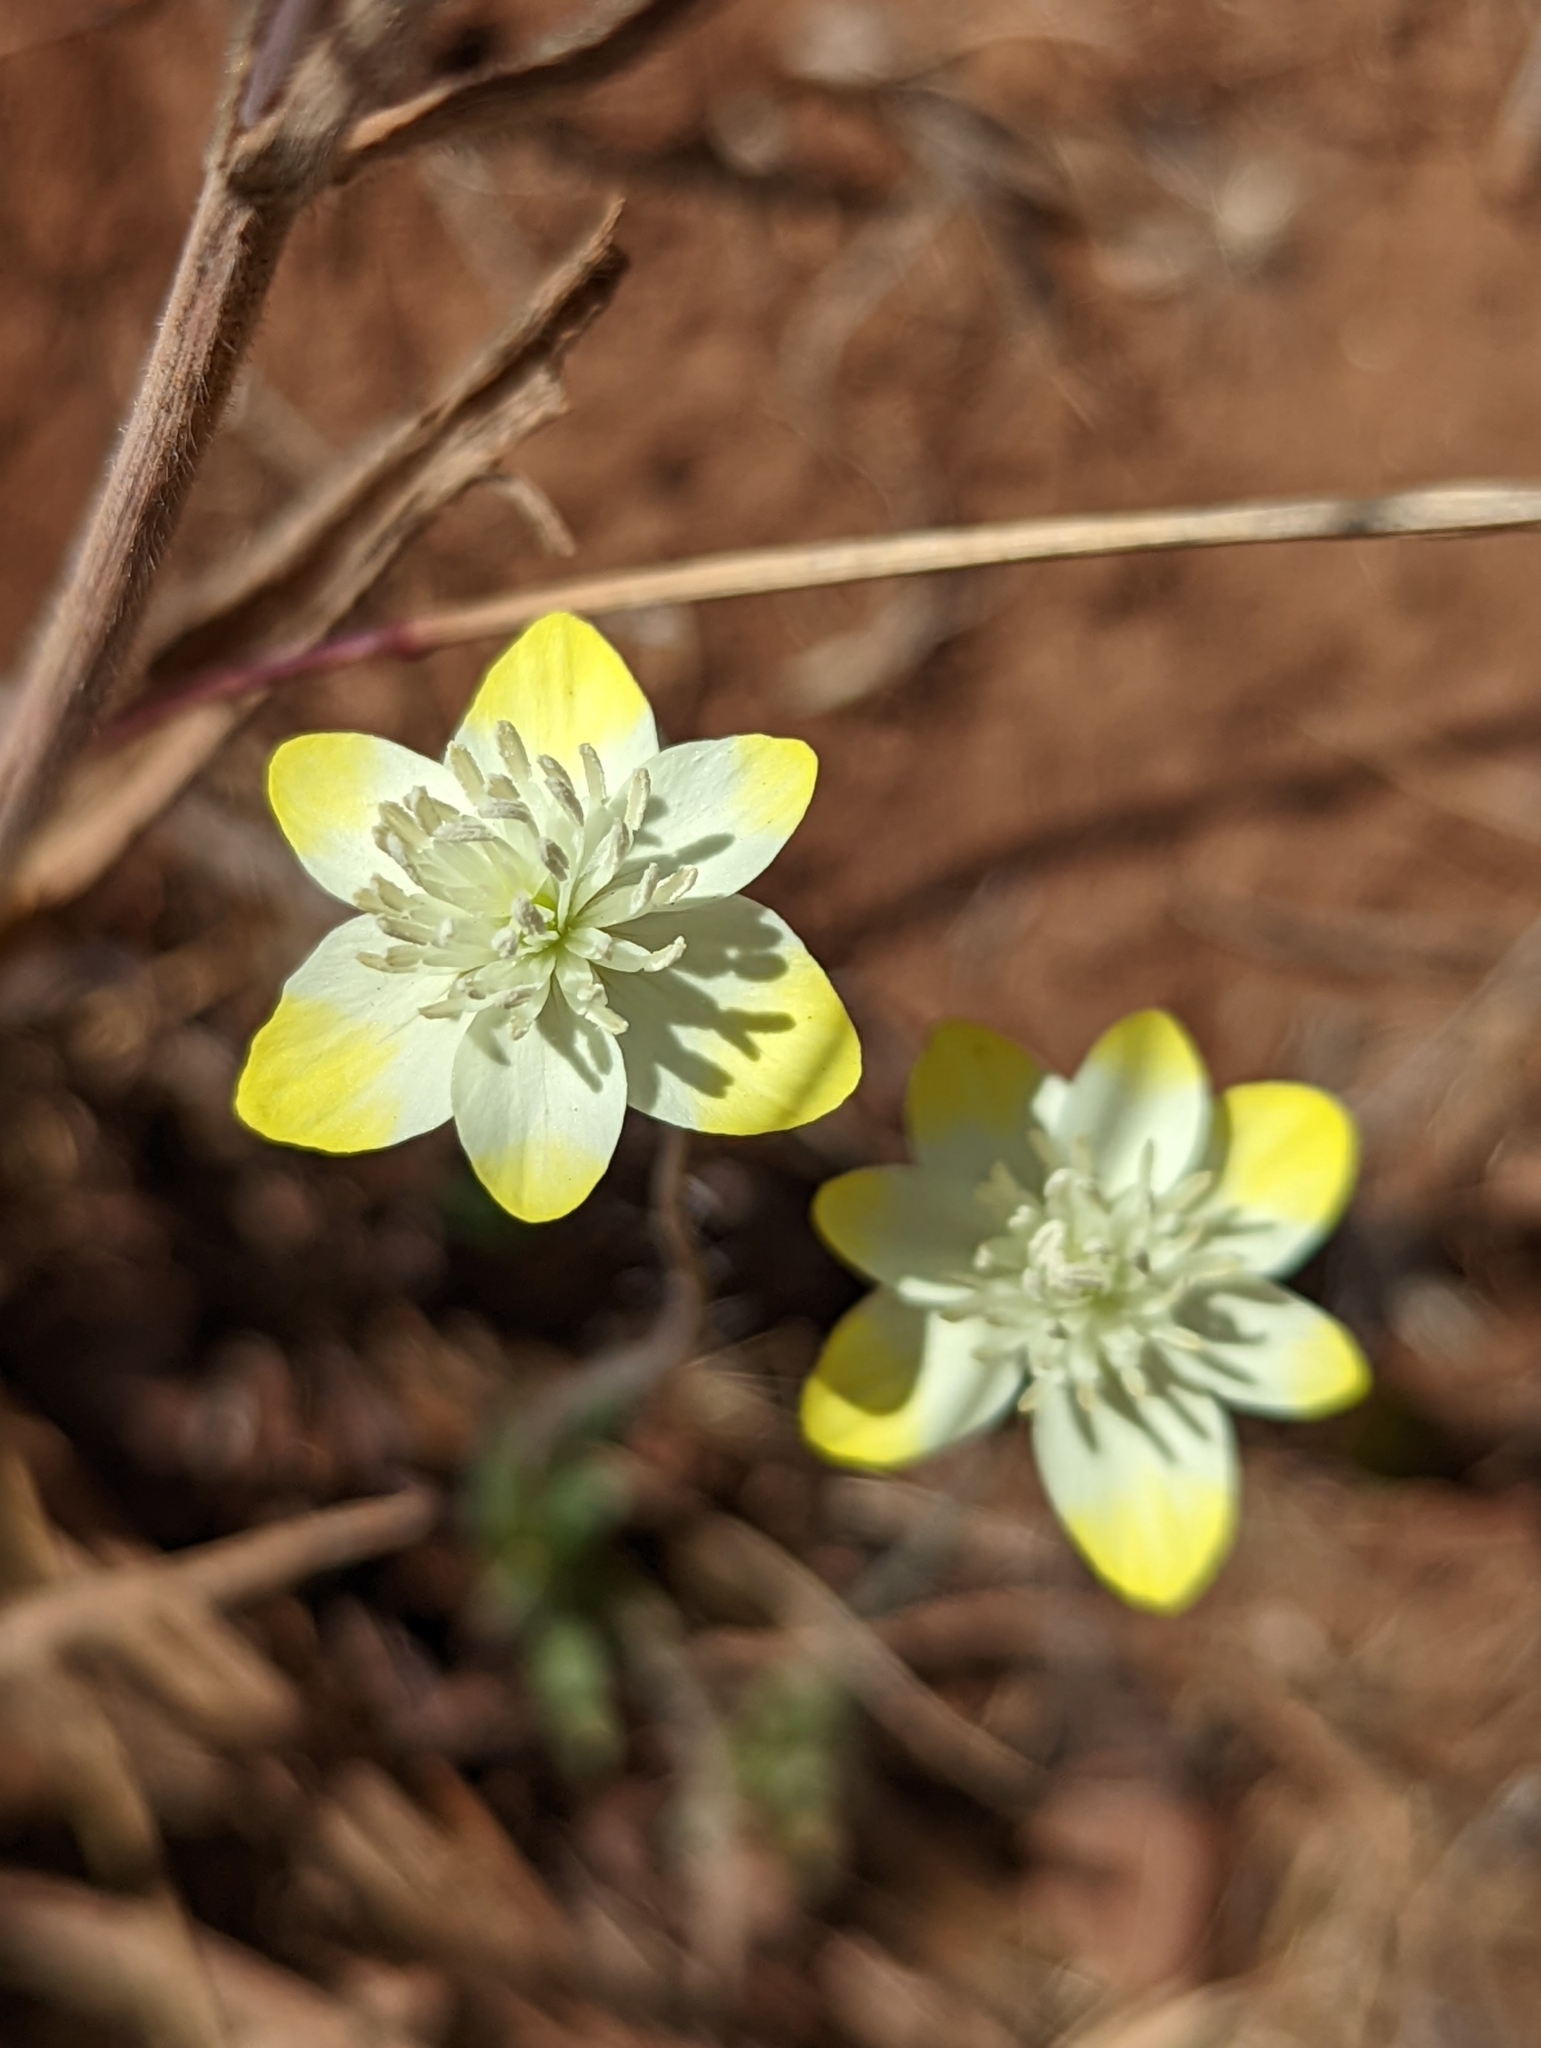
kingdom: Plantae
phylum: Tracheophyta
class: Magnoliopsida
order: Ranunculales
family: Papaveraceae
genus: Platystemon
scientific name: Platystemon californicus
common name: Cream-cups
